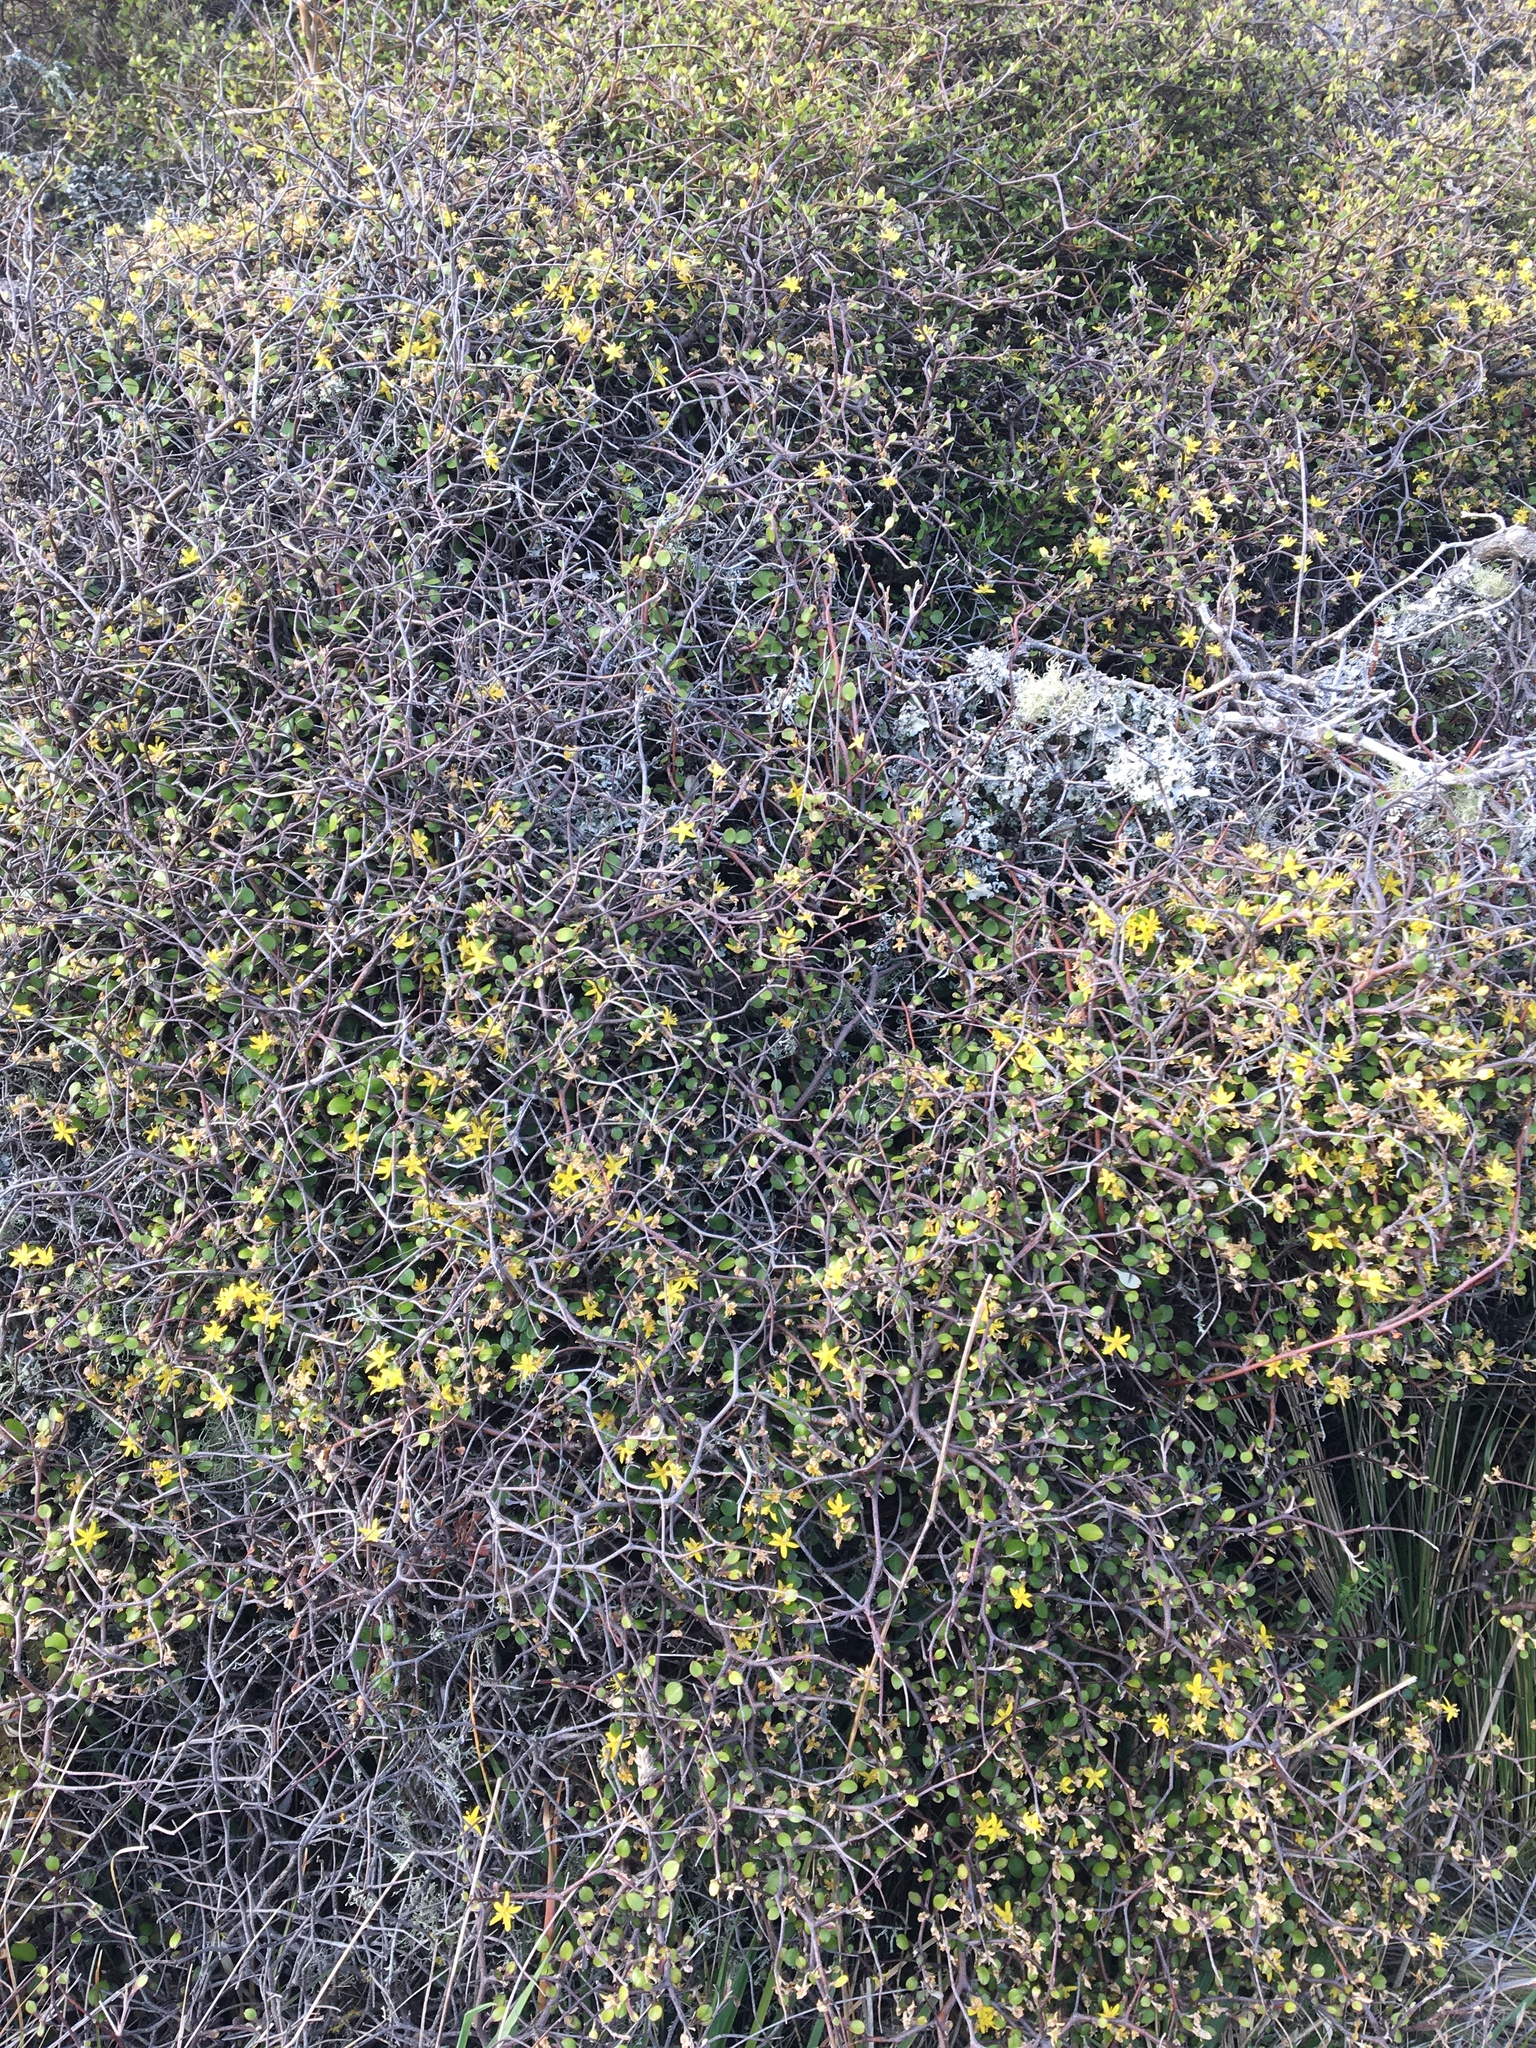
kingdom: Plantae
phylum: Tracheophyta
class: Magnoliopsida
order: Asterales
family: Argophyllaceae
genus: Corokia
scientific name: Corokia cotoneaster
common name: Wire nettingbush
